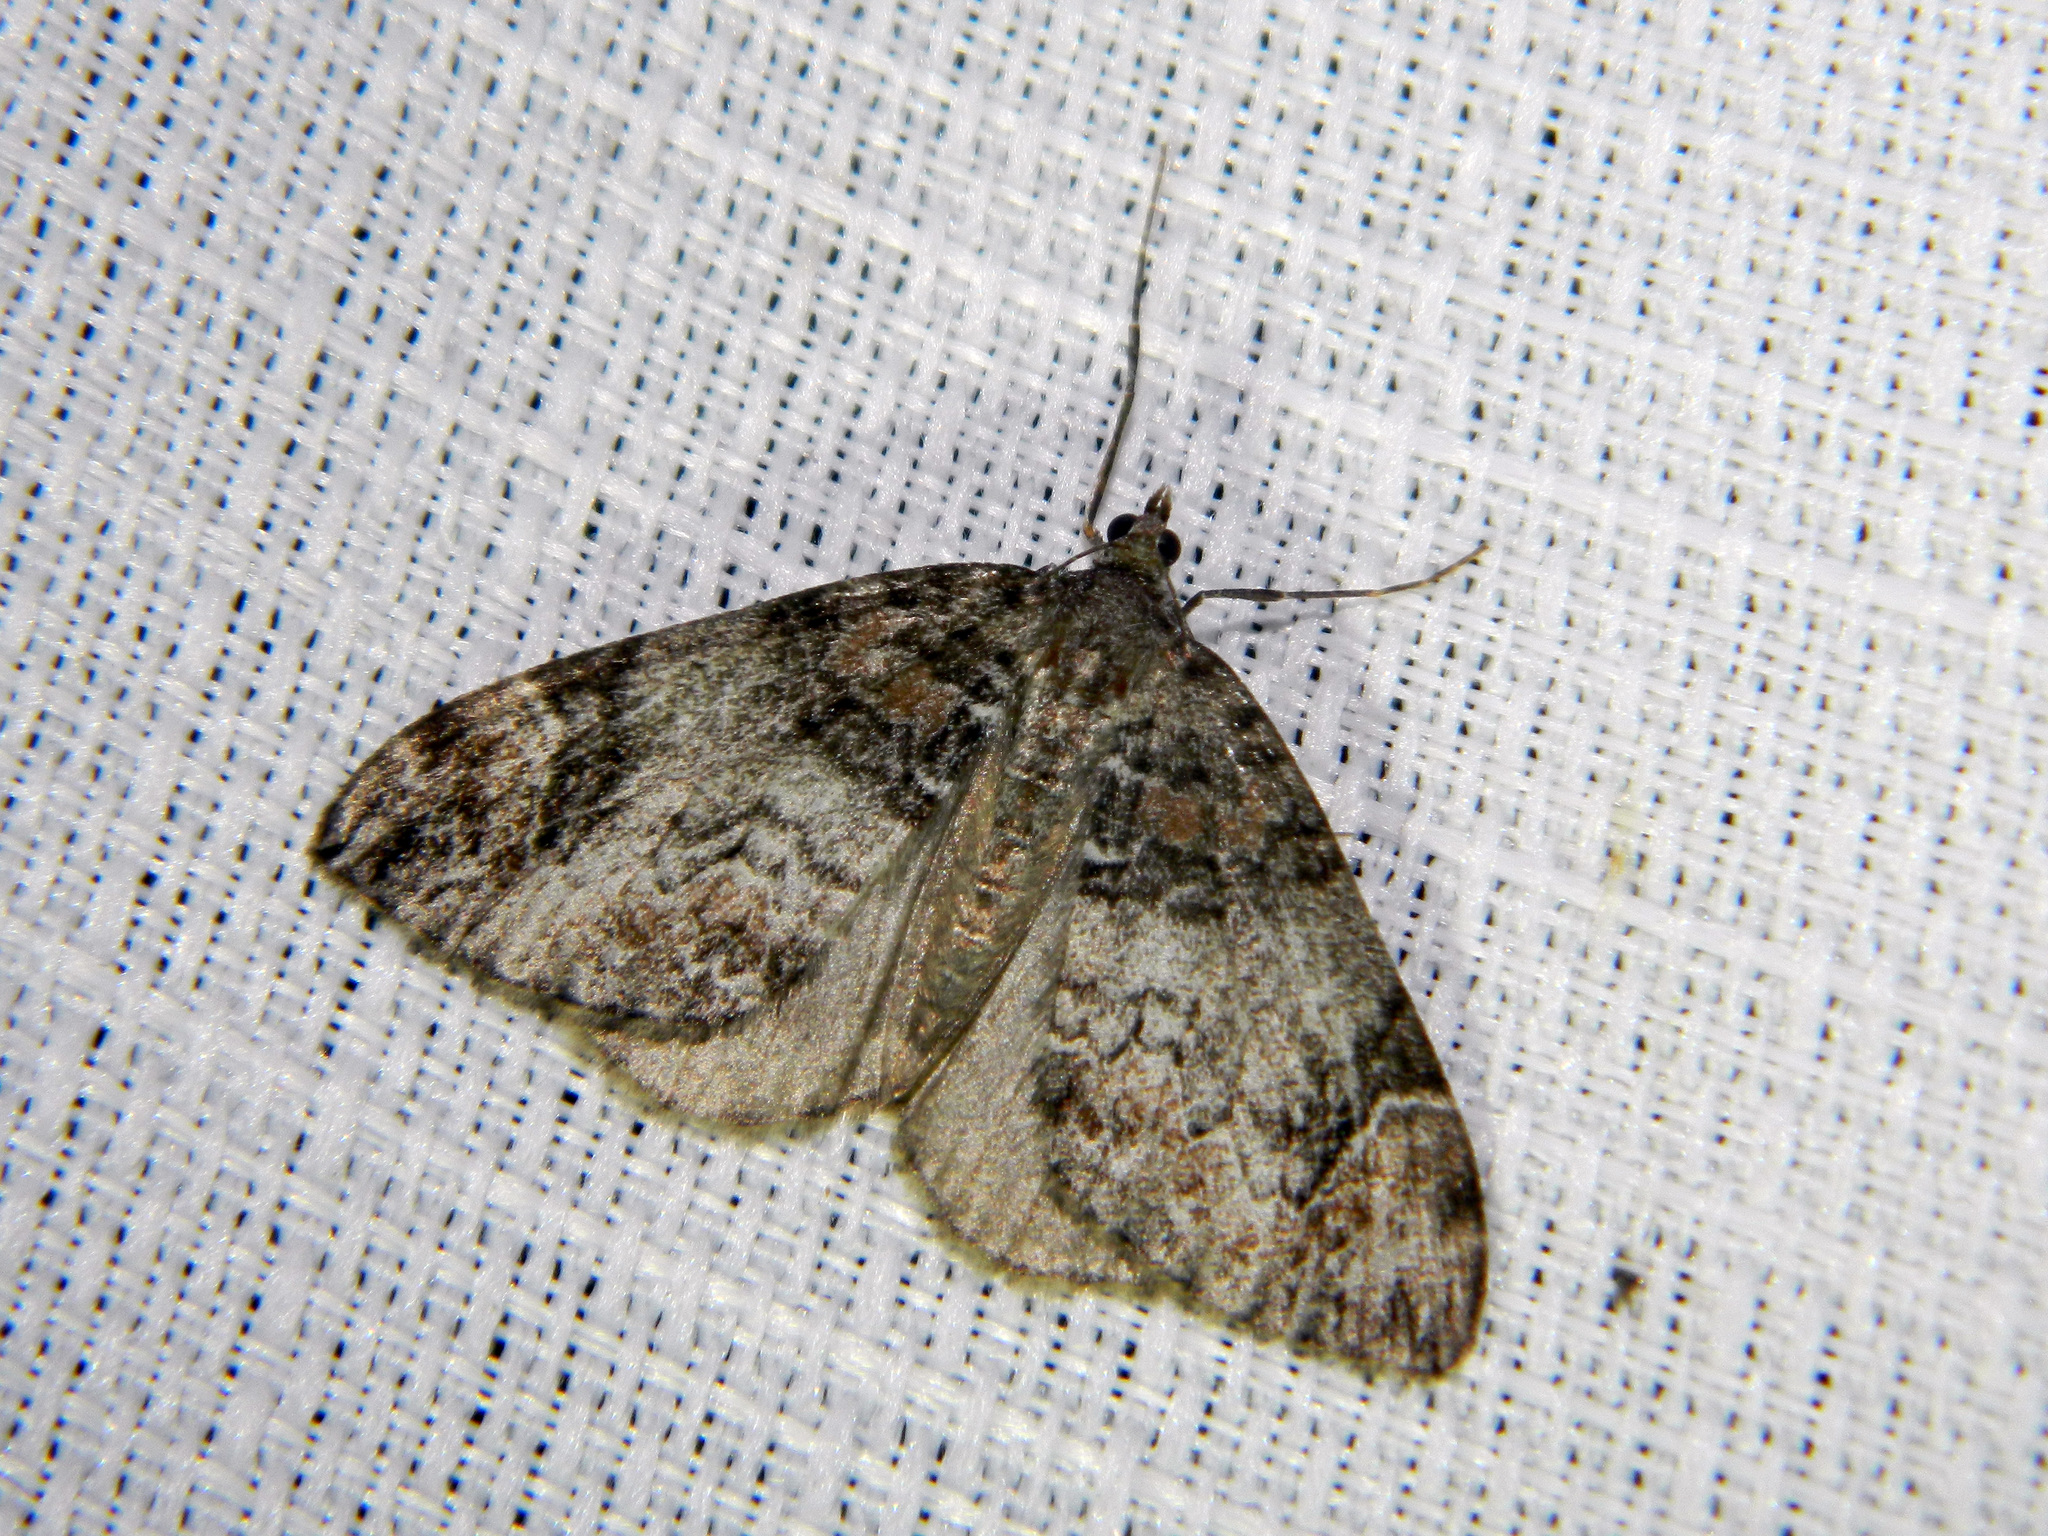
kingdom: Animalia
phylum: Arthropoda
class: Insecta
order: Lepidoptera
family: Geometridae
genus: Dysstroma
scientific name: Dysstroma citrata
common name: Dark marbled carpet
